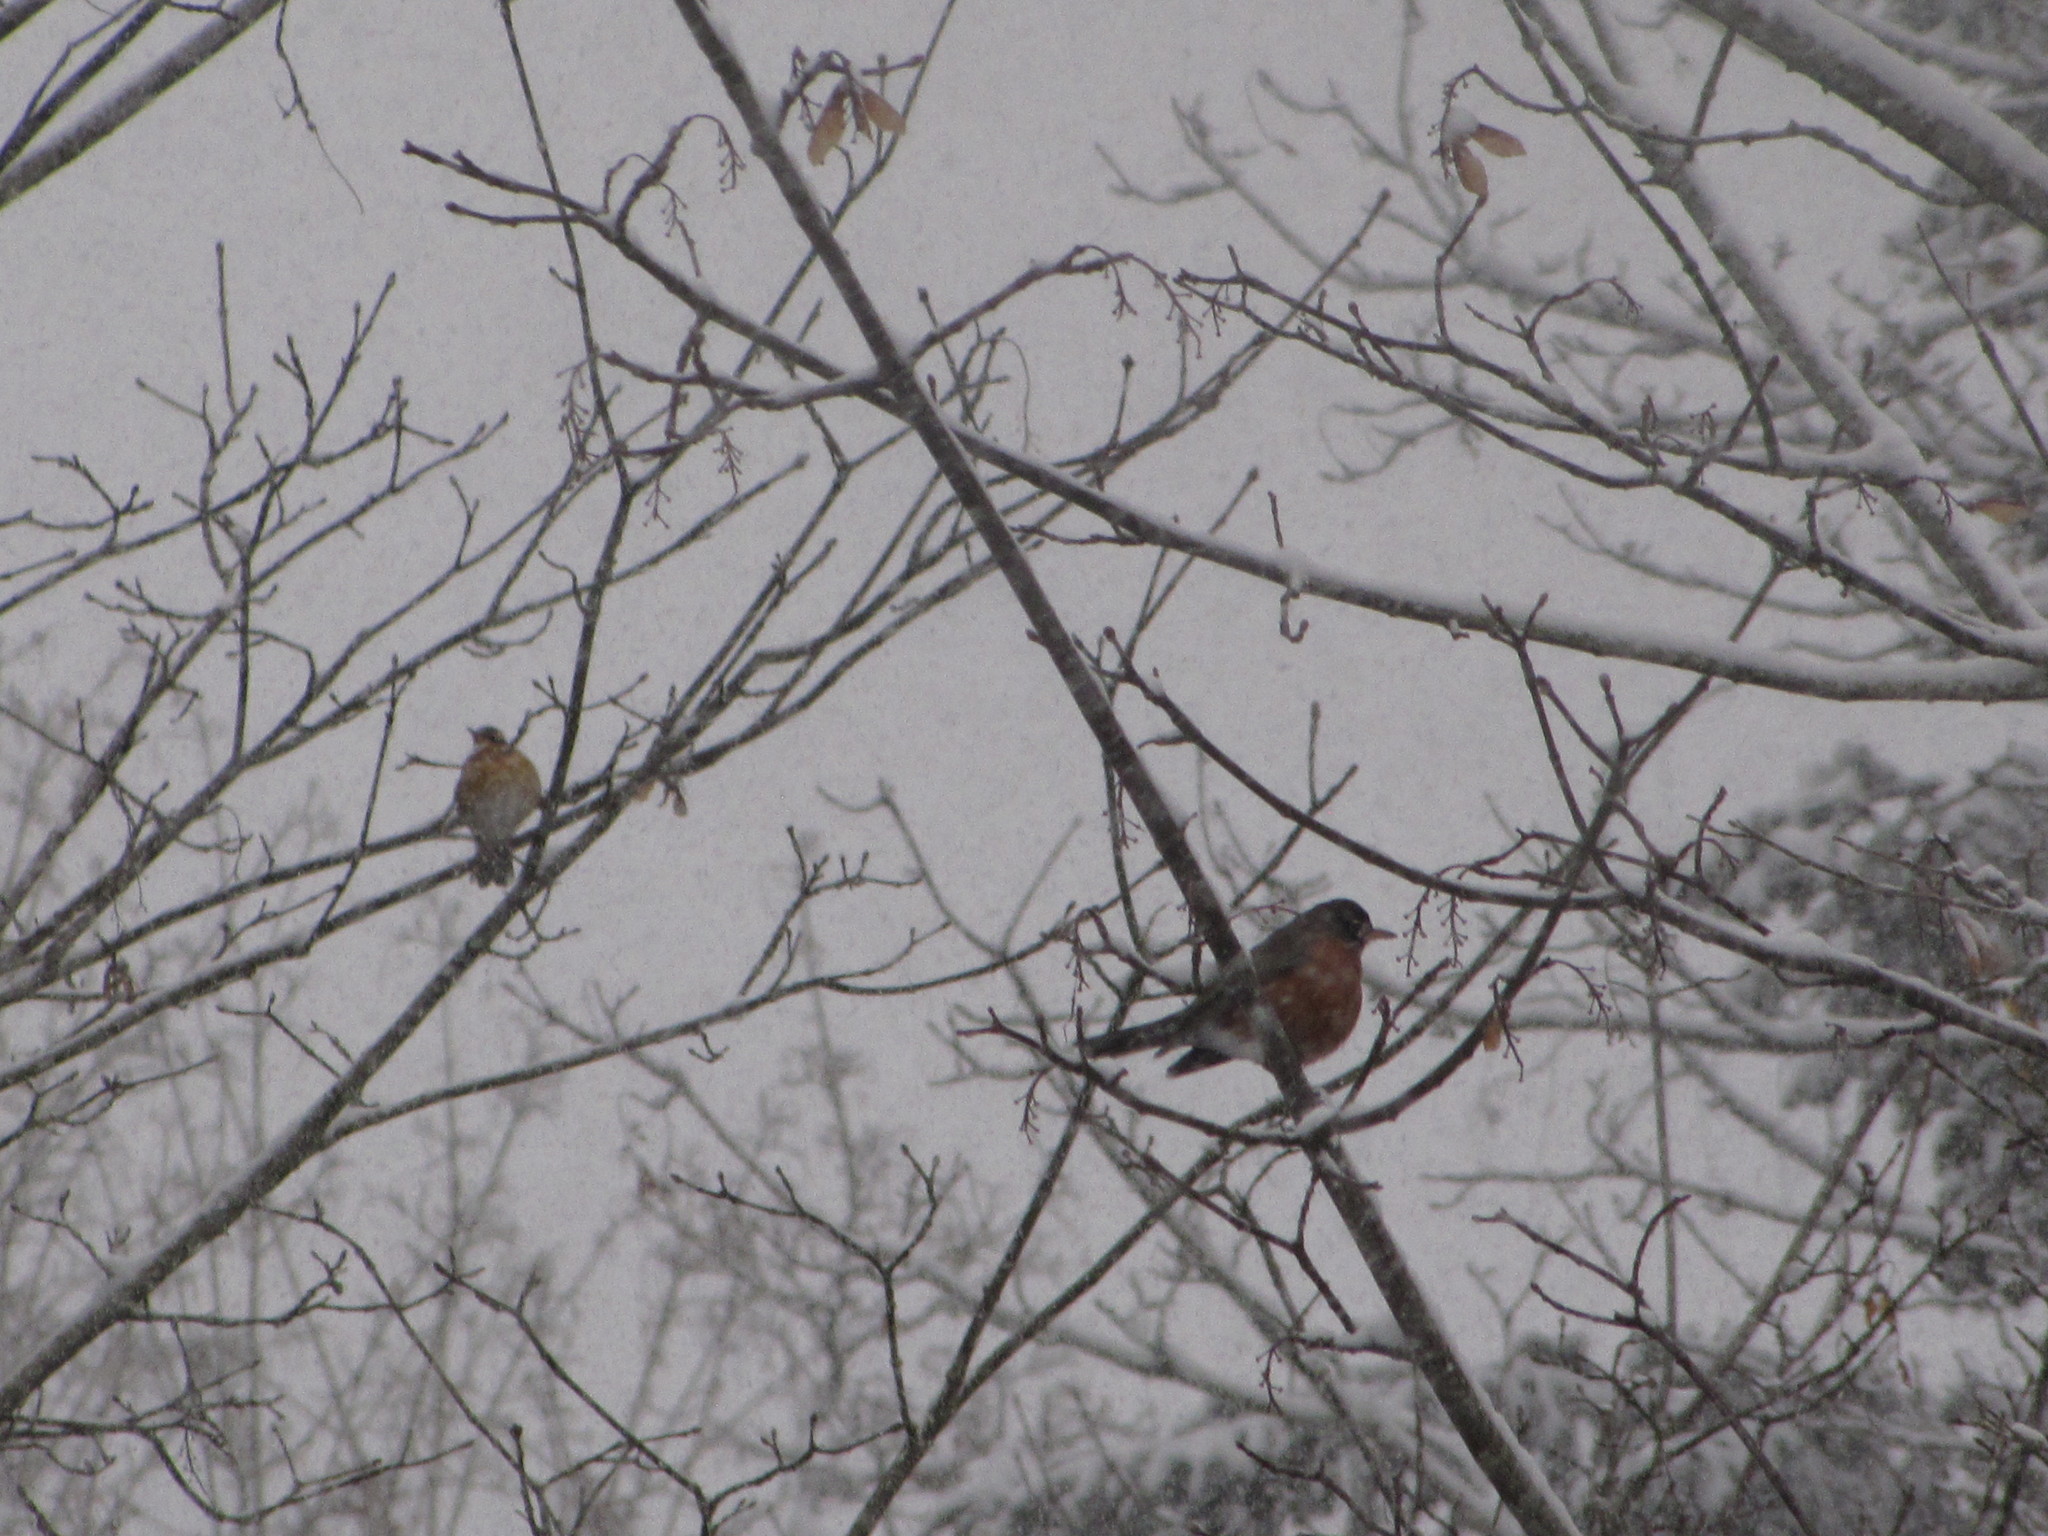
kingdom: Animalia
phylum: Chordata
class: Aves
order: Passeriformes
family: Turdidae
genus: Turdus
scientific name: Turdus migratorius
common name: American robin
